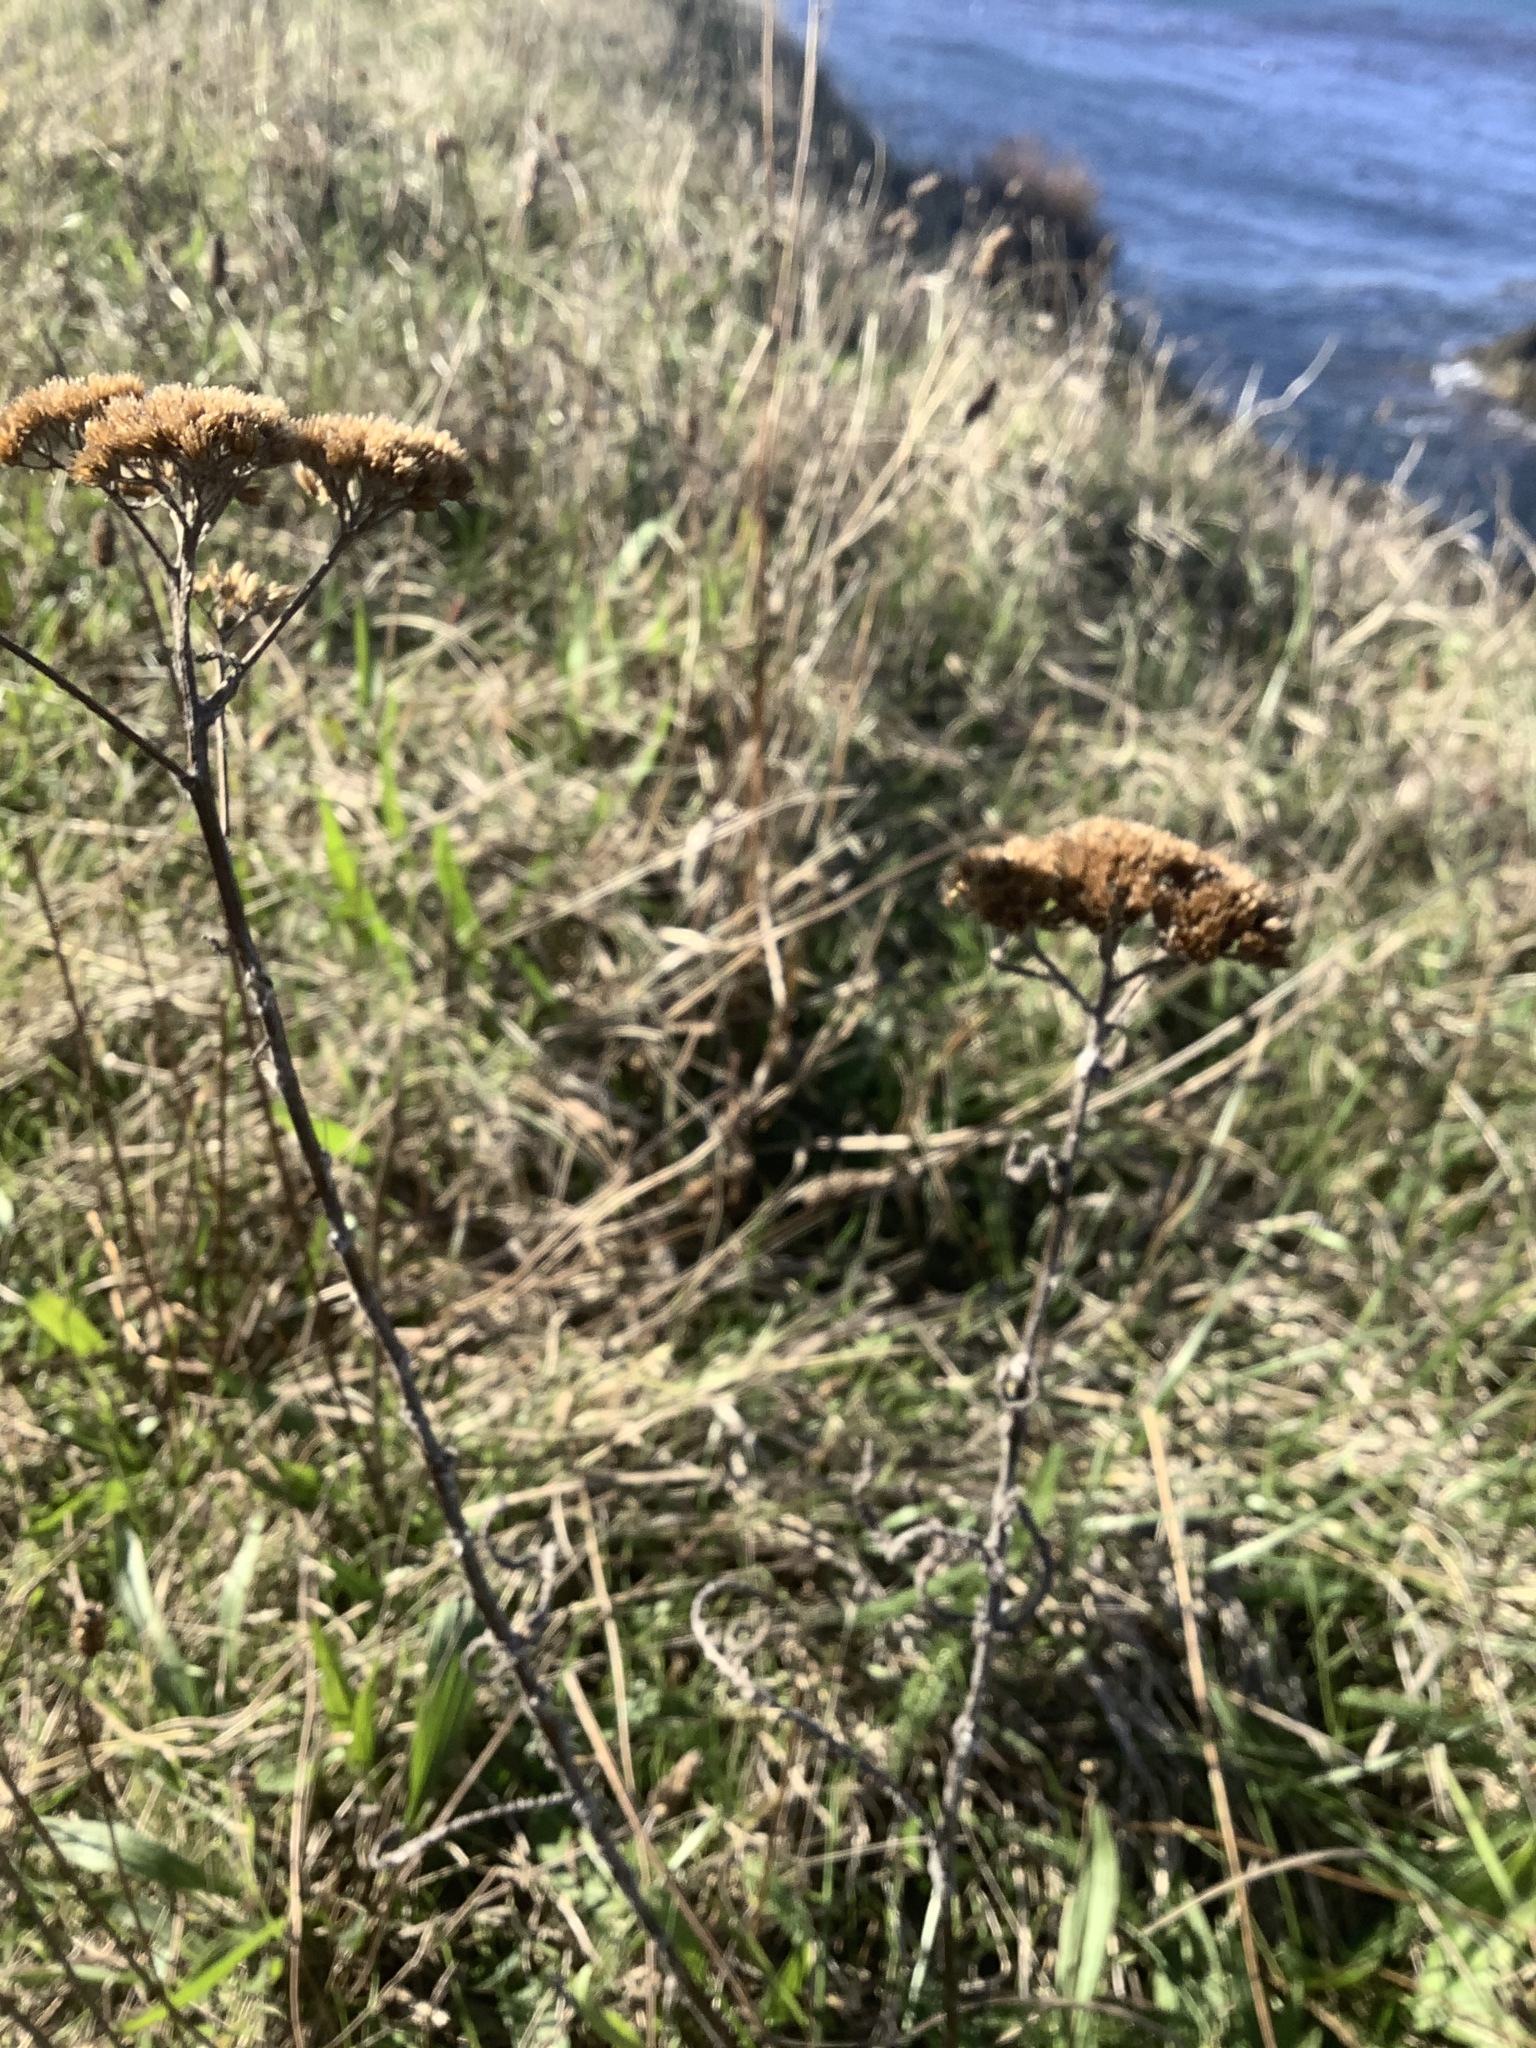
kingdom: Plantae
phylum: Tracheophyta
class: Magnoliopsida
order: Asterales
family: Asteraceae
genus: Achillea
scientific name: Achillea millefolium
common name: Yarrow
